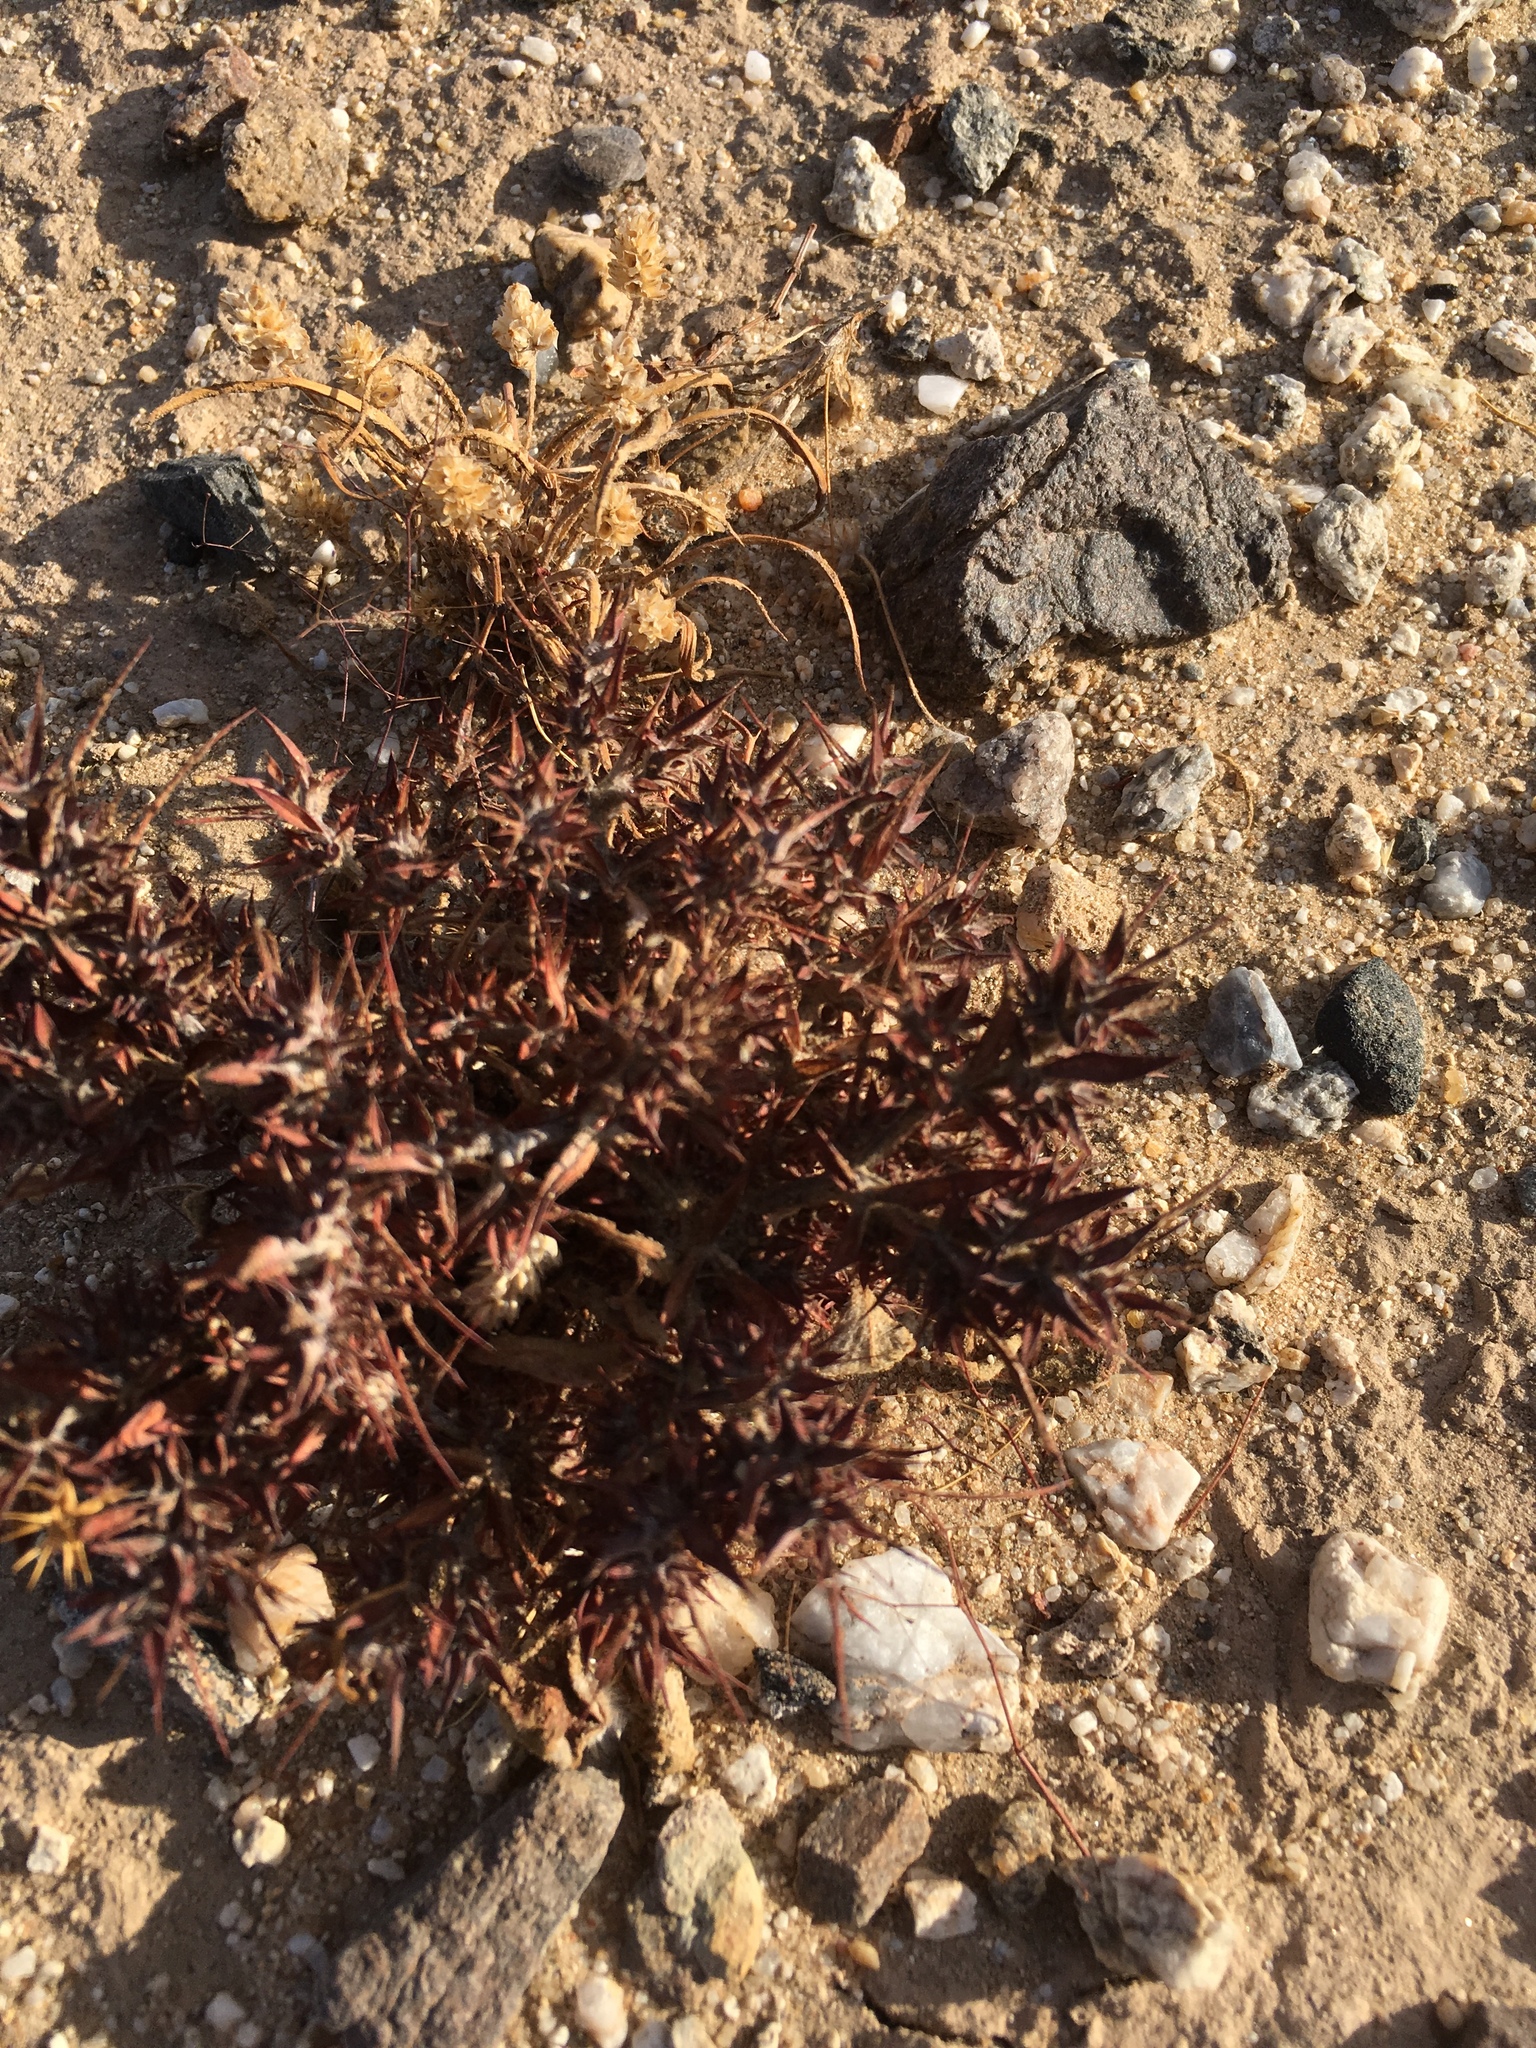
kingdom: Plantae
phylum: Tracheophyta
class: Magnoliopsida
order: Caryophyllales
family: Polygonaceae
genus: Chorizanthe
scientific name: Chorizanthe rigida
